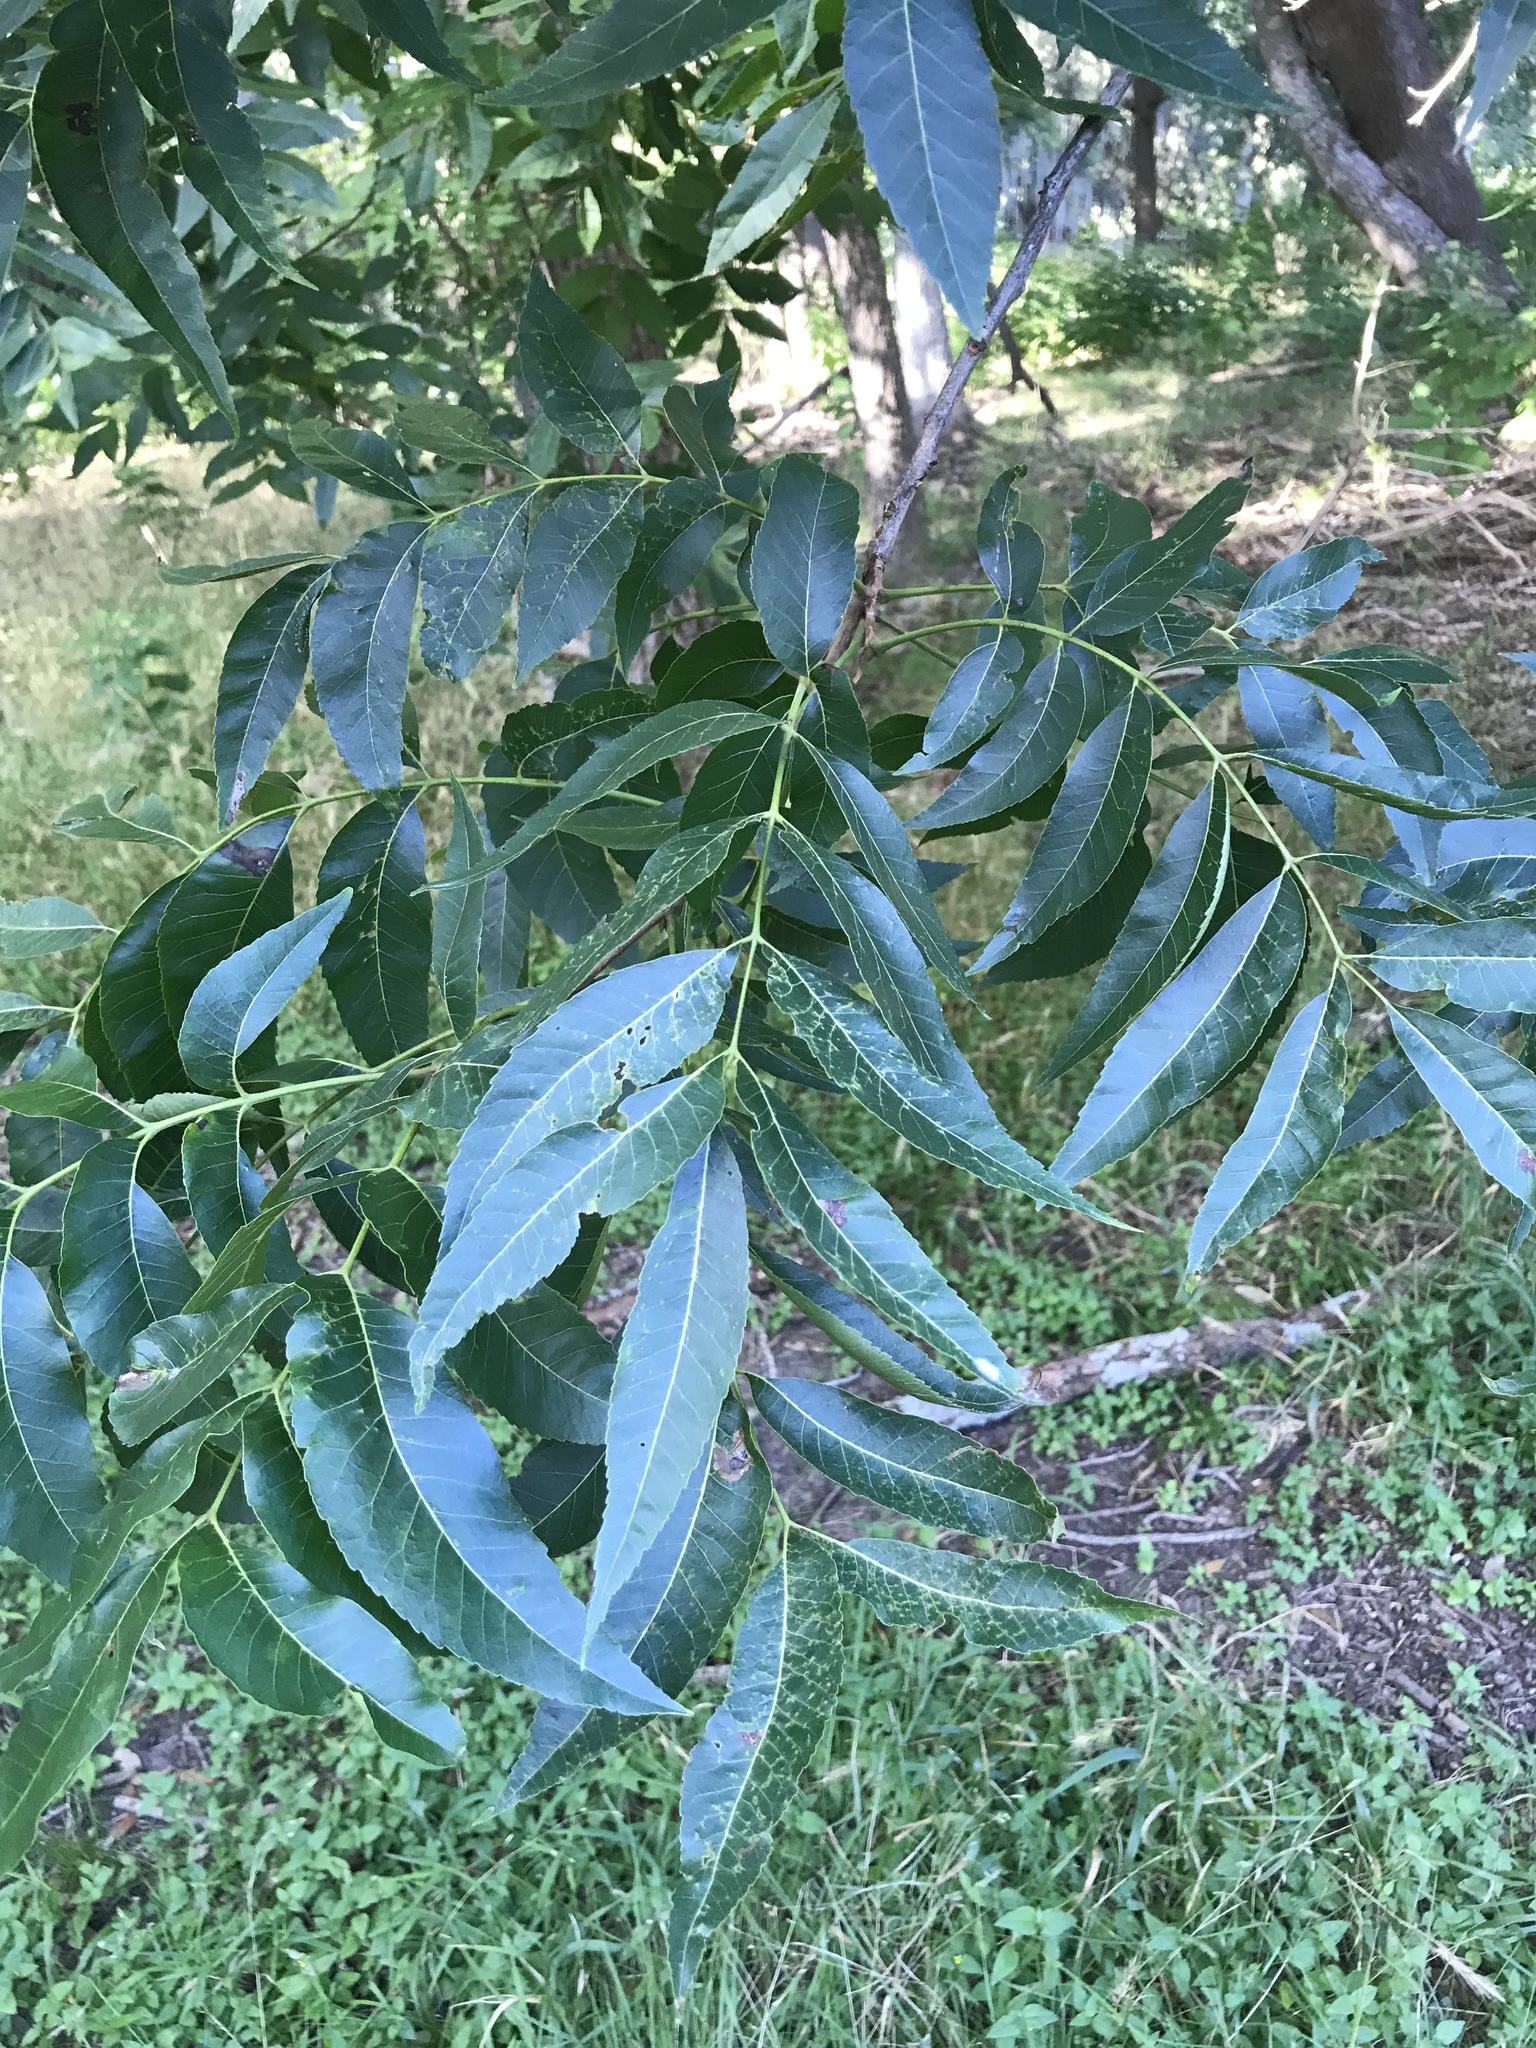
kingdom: Plantae
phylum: Tracheophyta
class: Magnoliopsida
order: Fagales
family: Juglandaceae
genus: Carya
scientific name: Carya illinoinensis
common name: Pecan
